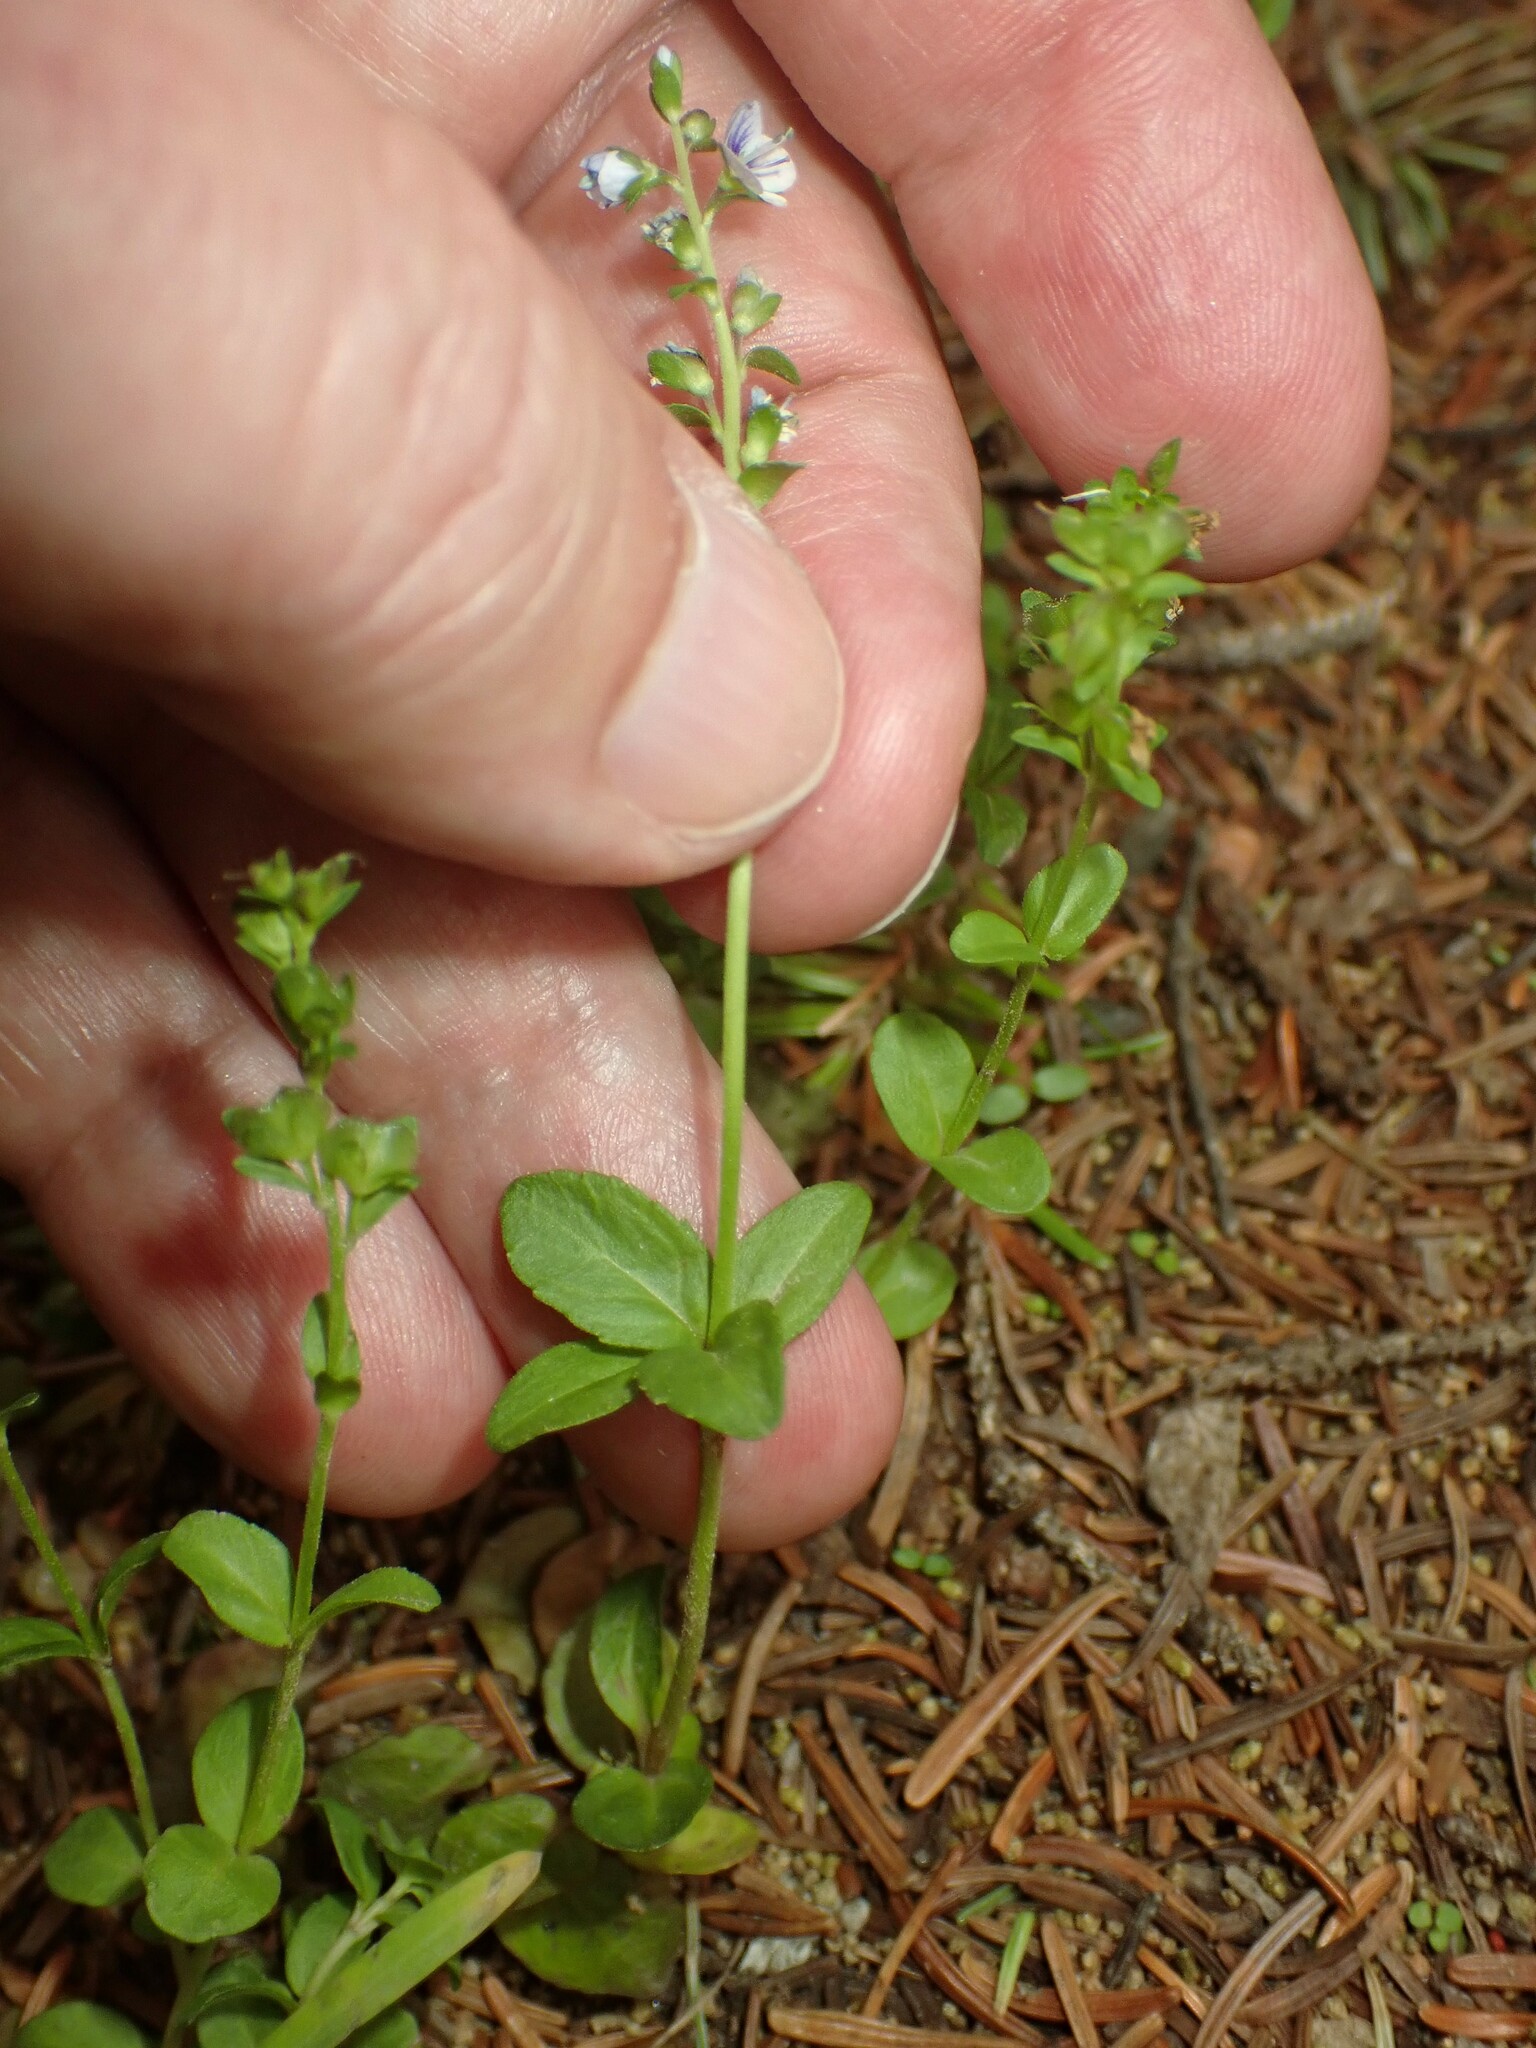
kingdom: Plantae
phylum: Tracheophyta
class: Magnoliopsida
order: Lamiales
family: Plantaginaceae
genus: Veronica
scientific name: Veronica serpyllifolia
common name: Thyme-leaved speedwell
